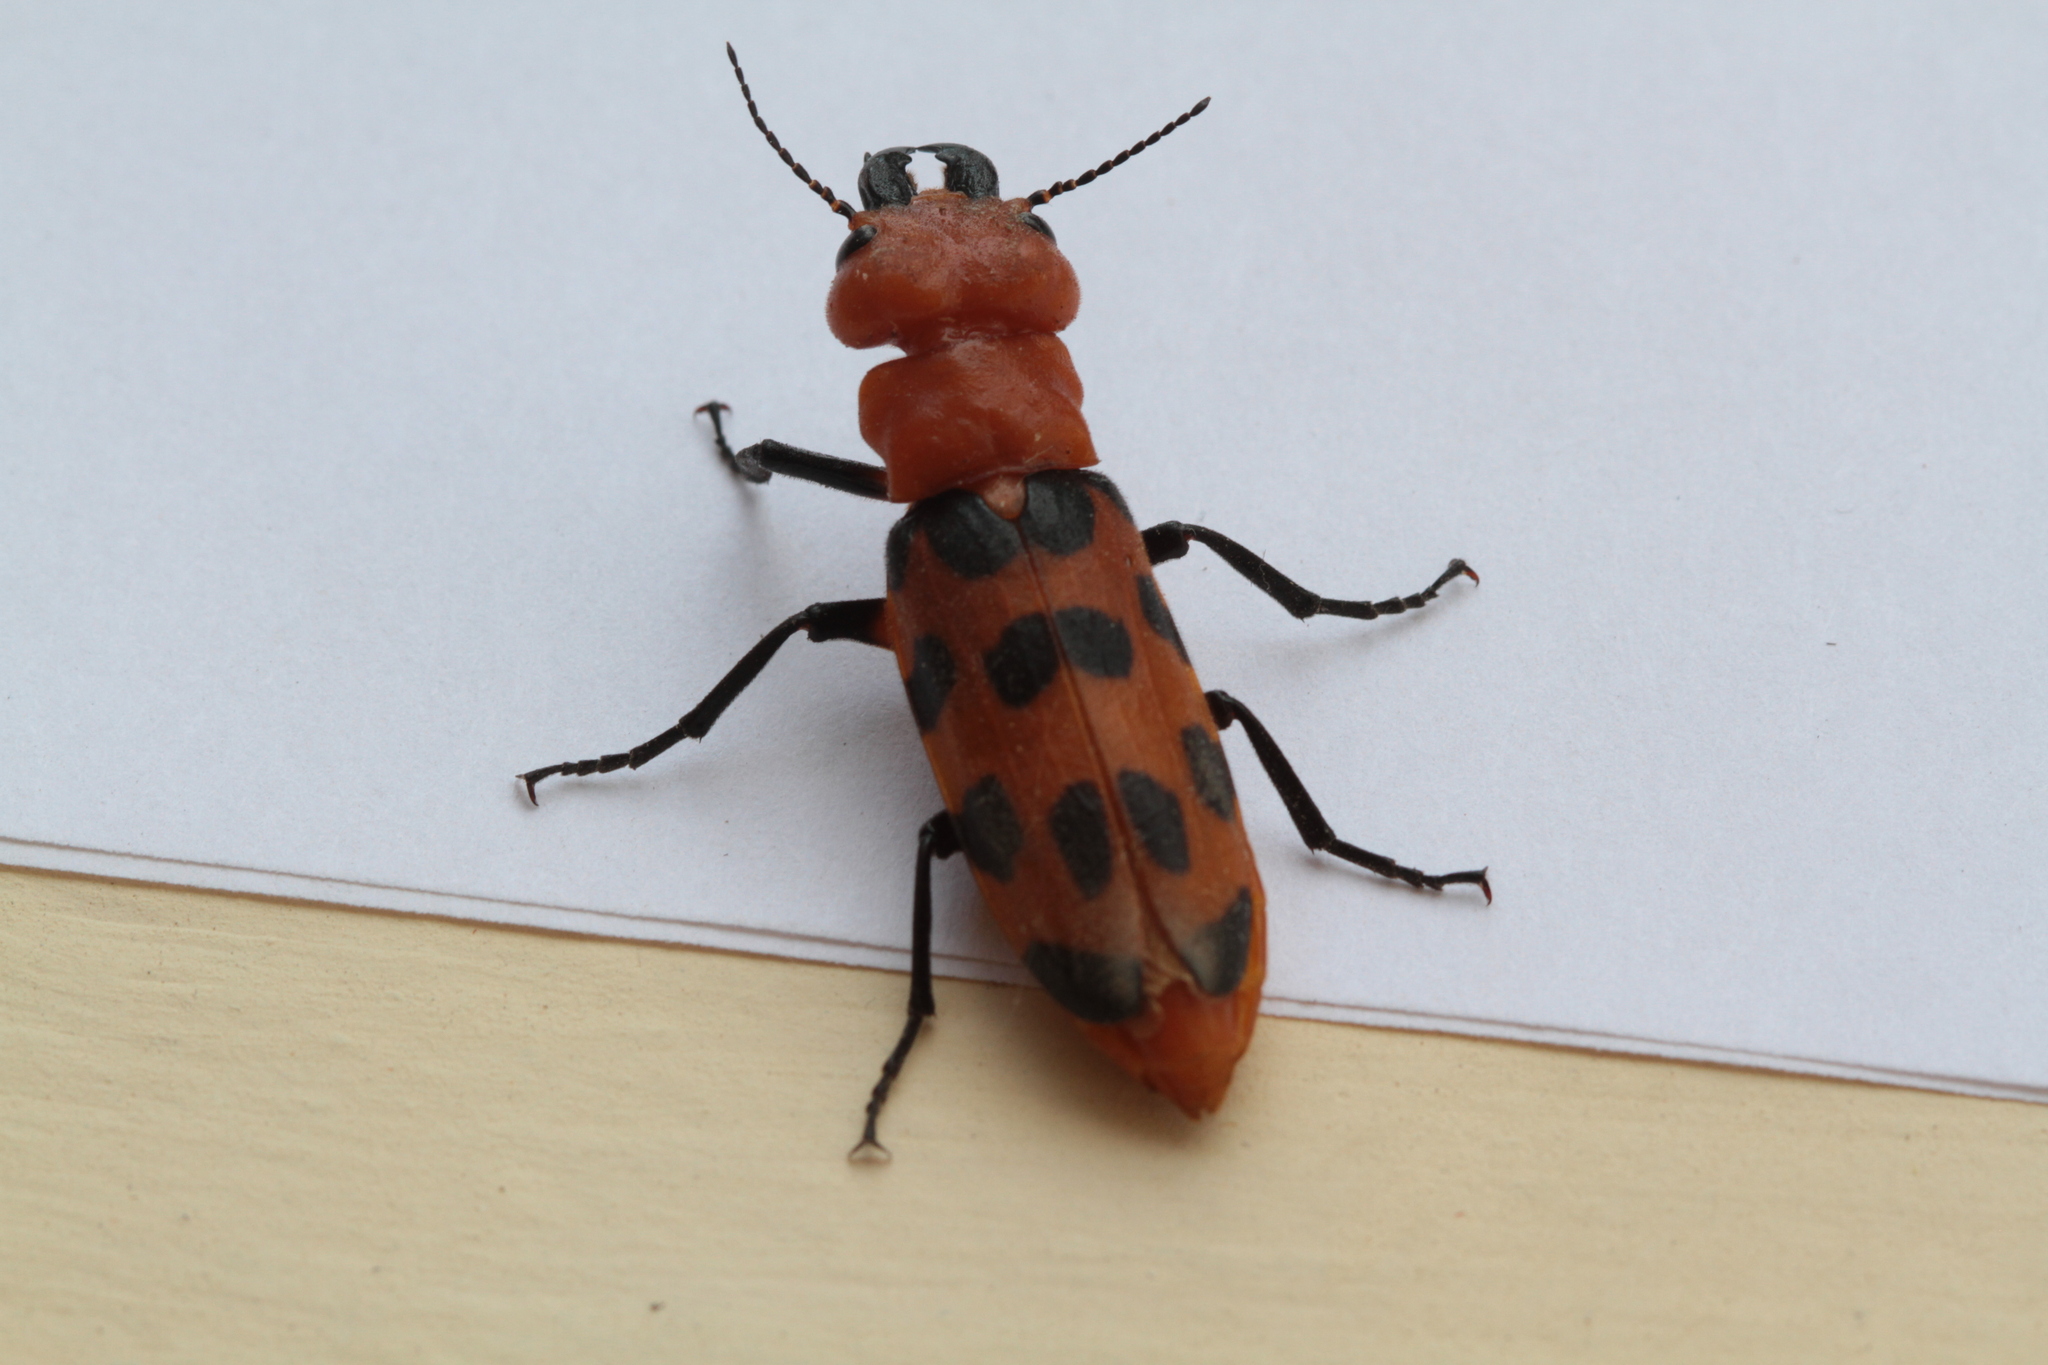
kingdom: Animalia
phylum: Arthropoda
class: Insecta
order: Coleoptera
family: Meloidae
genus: Cissites
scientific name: Cissites maculata
